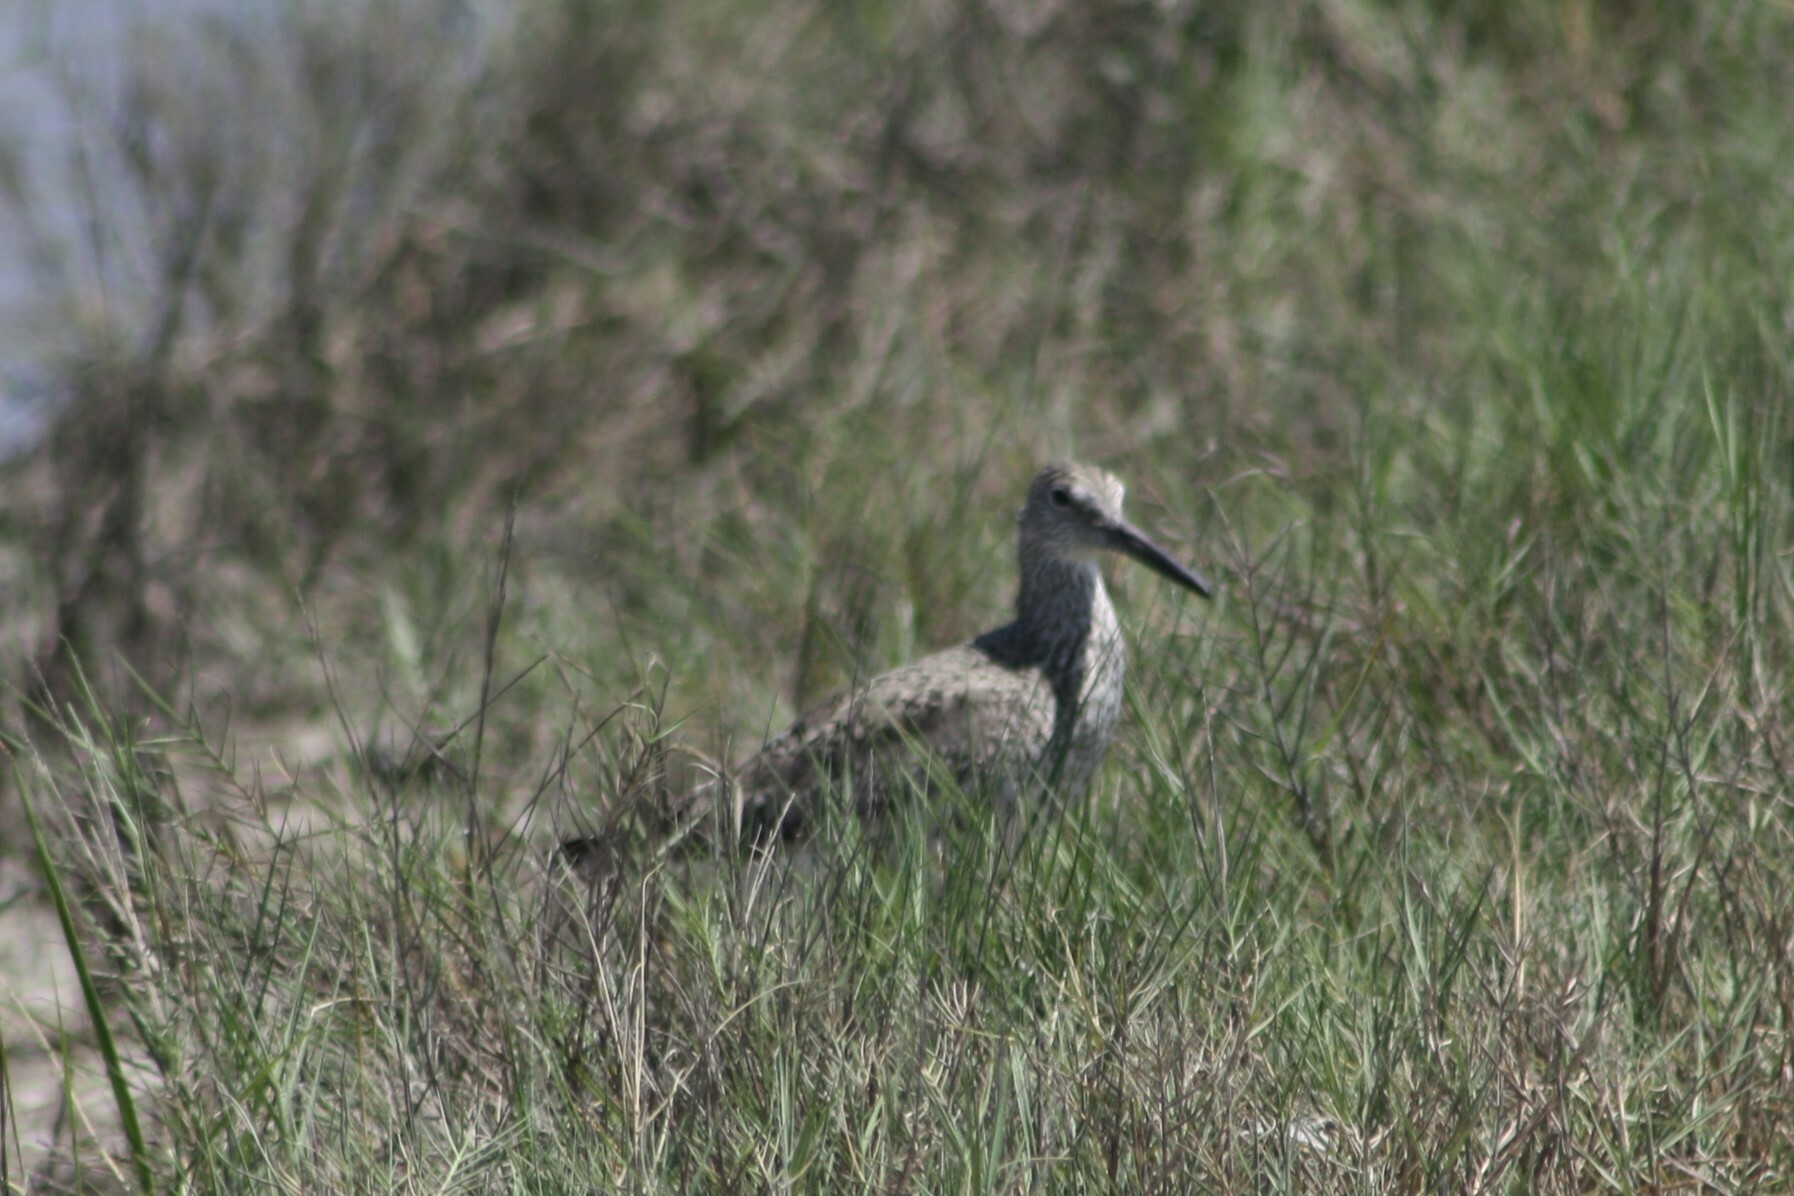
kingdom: Animalia
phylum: Chordata
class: Aves
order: Charadriiformes
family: Scolopacidae
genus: Tringa
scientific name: Tringa semipalmata
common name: Willet
